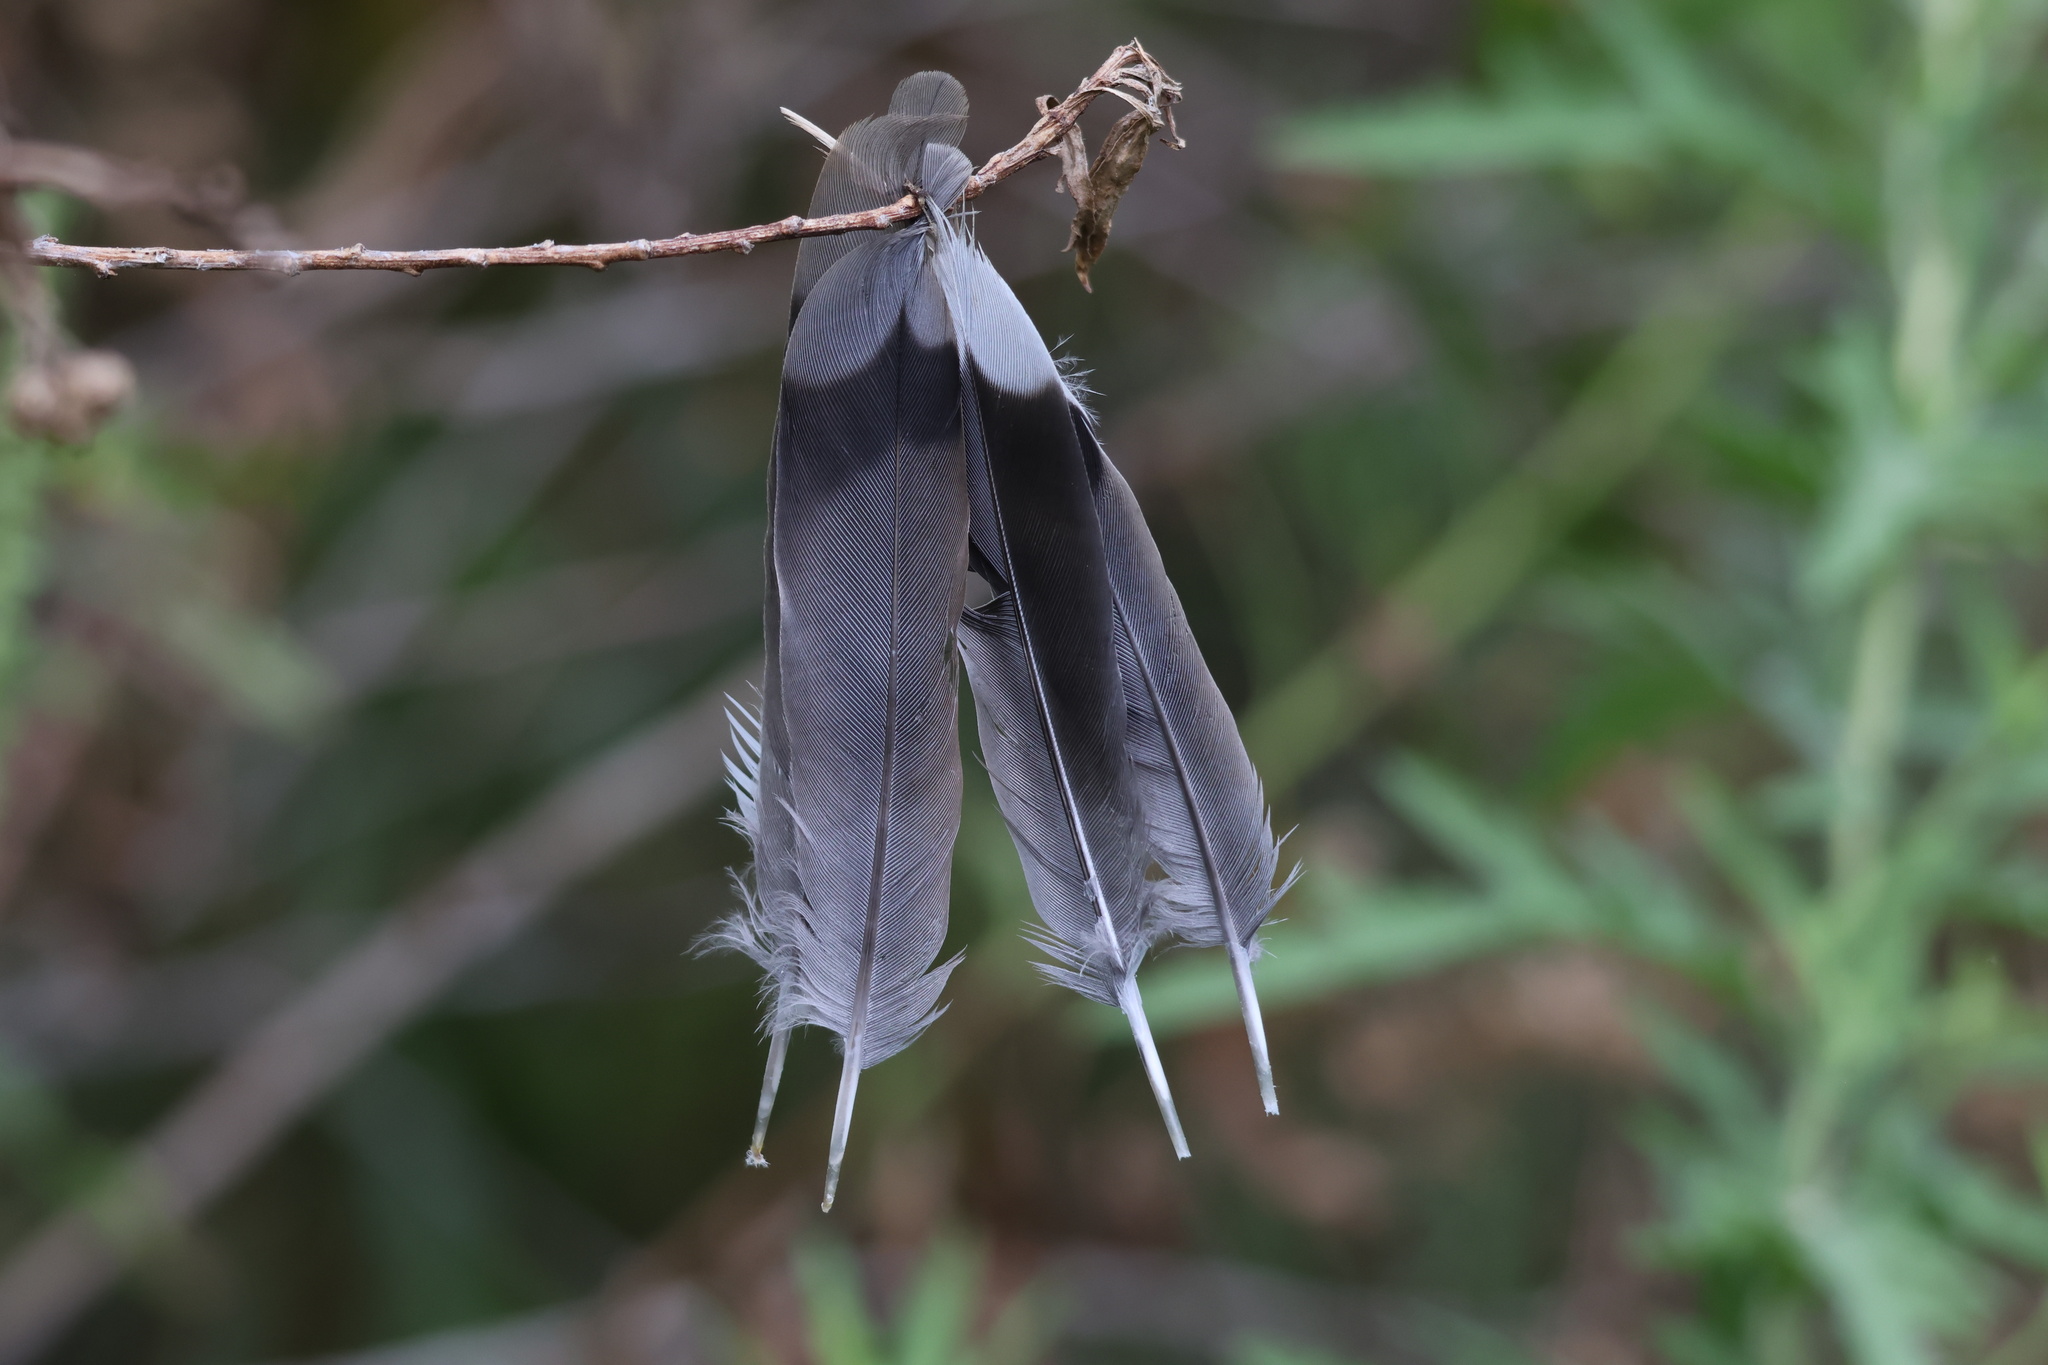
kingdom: Animalia
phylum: Chordata
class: Aves
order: Columbiformes
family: Columbidae
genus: Zenaida
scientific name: Zenaida macroura
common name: Mourning dove
